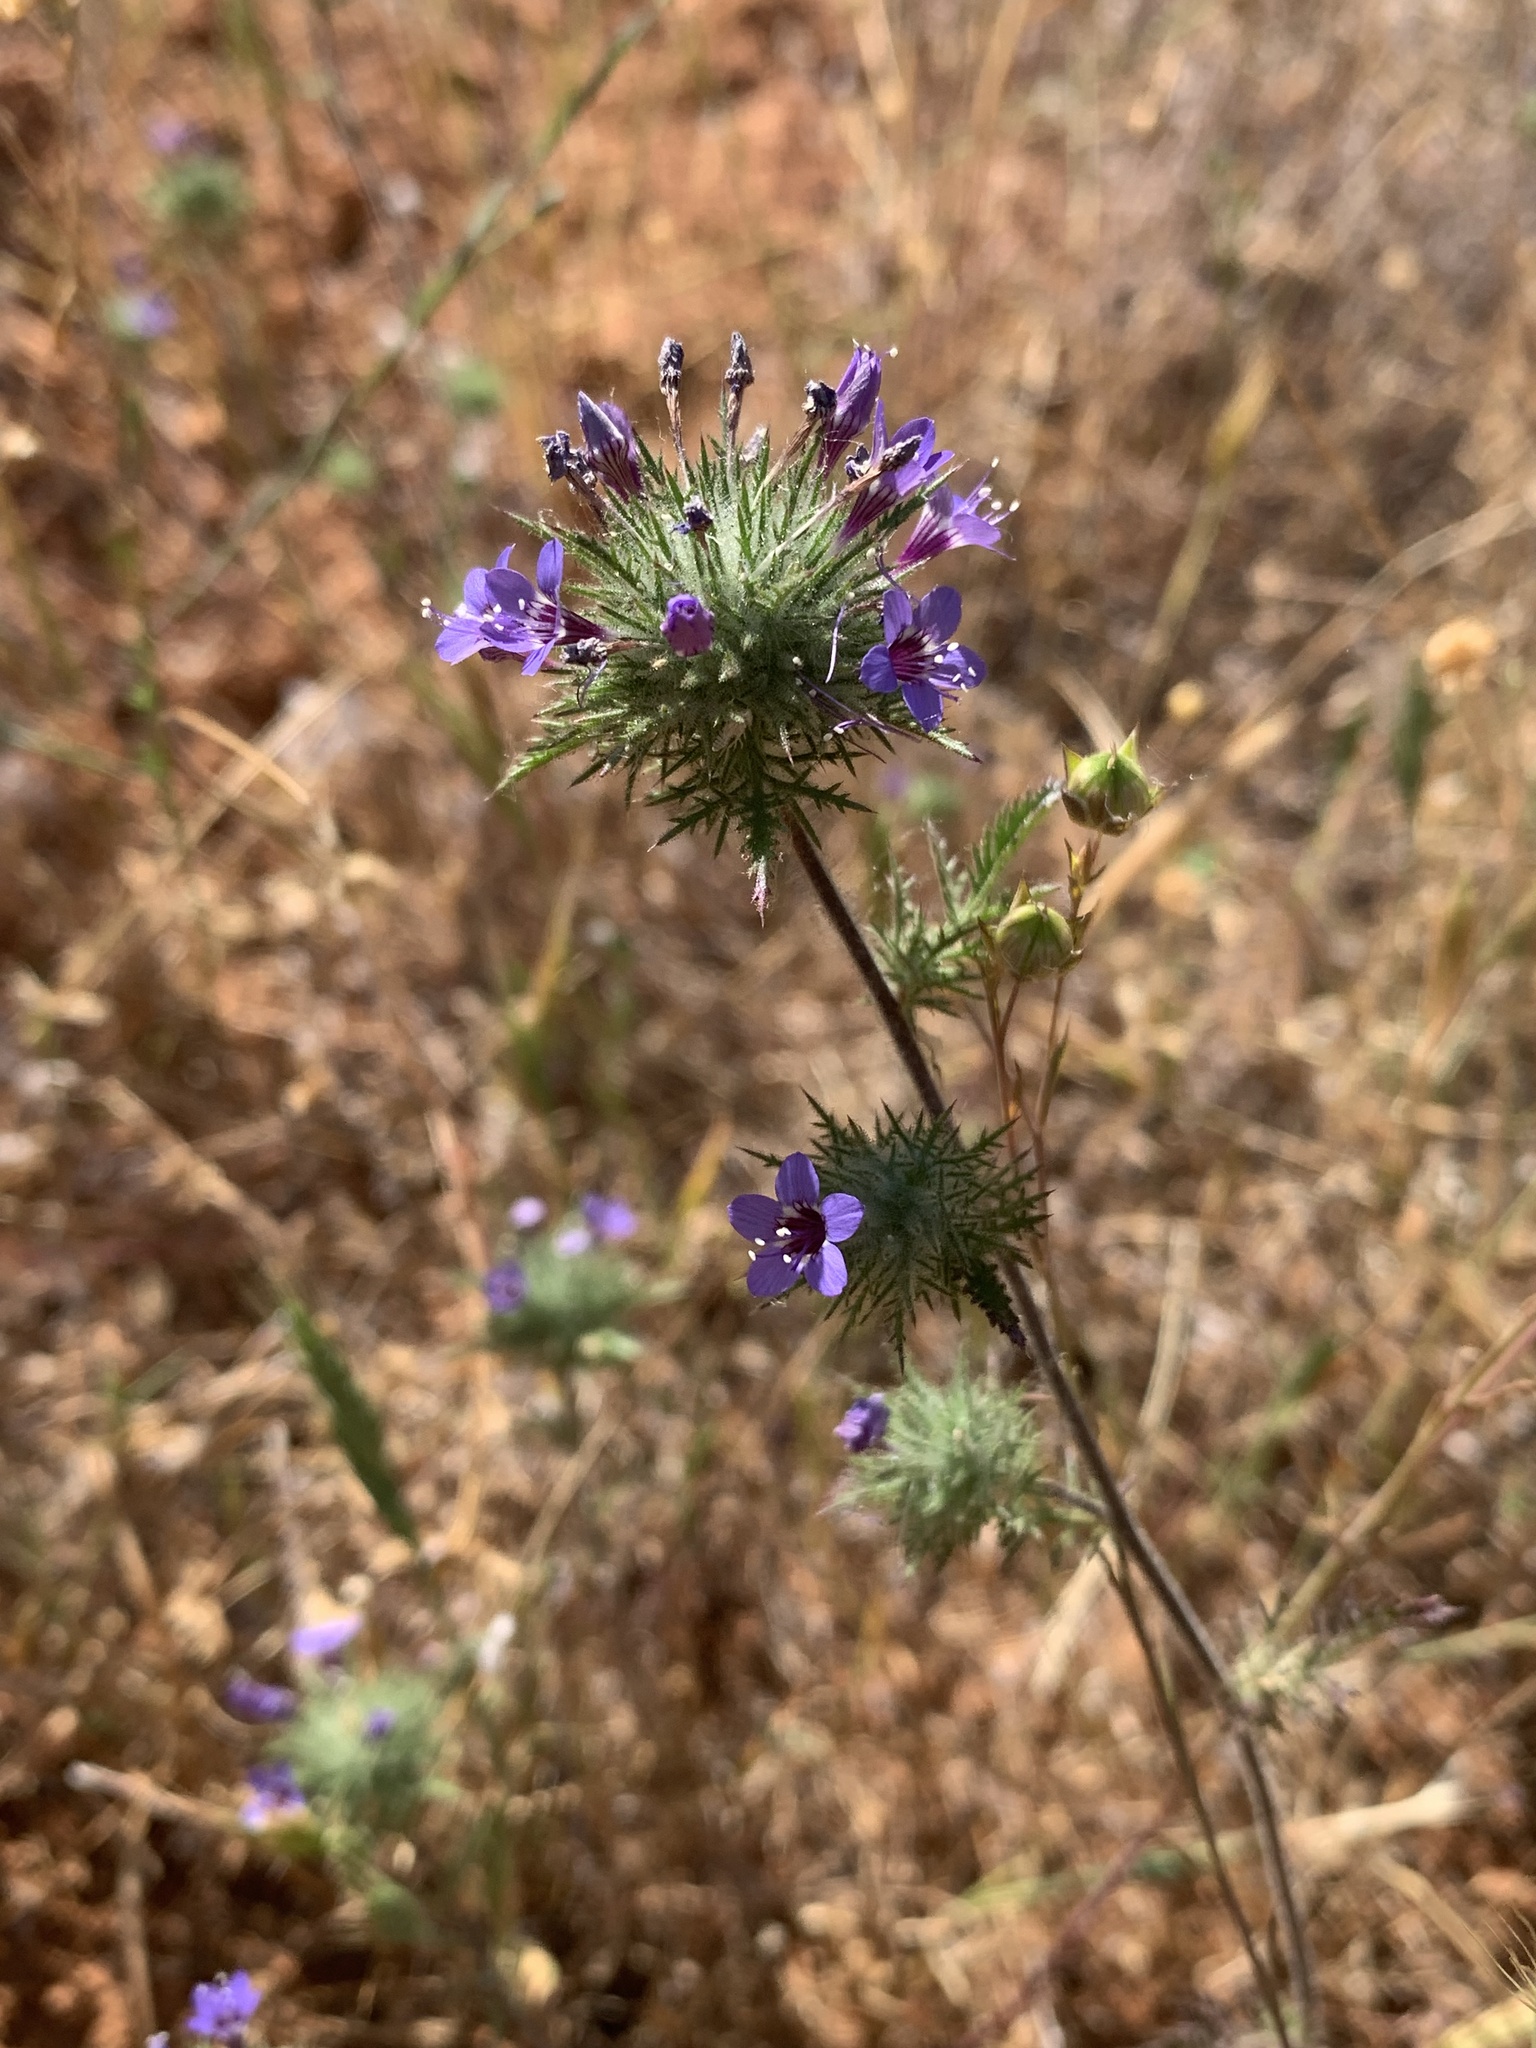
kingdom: Plantae
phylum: Tracheophyta
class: Magnoliopsida
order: Ericales
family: Polemoniaceae
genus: Navarretia
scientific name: Navarretia pubescens
